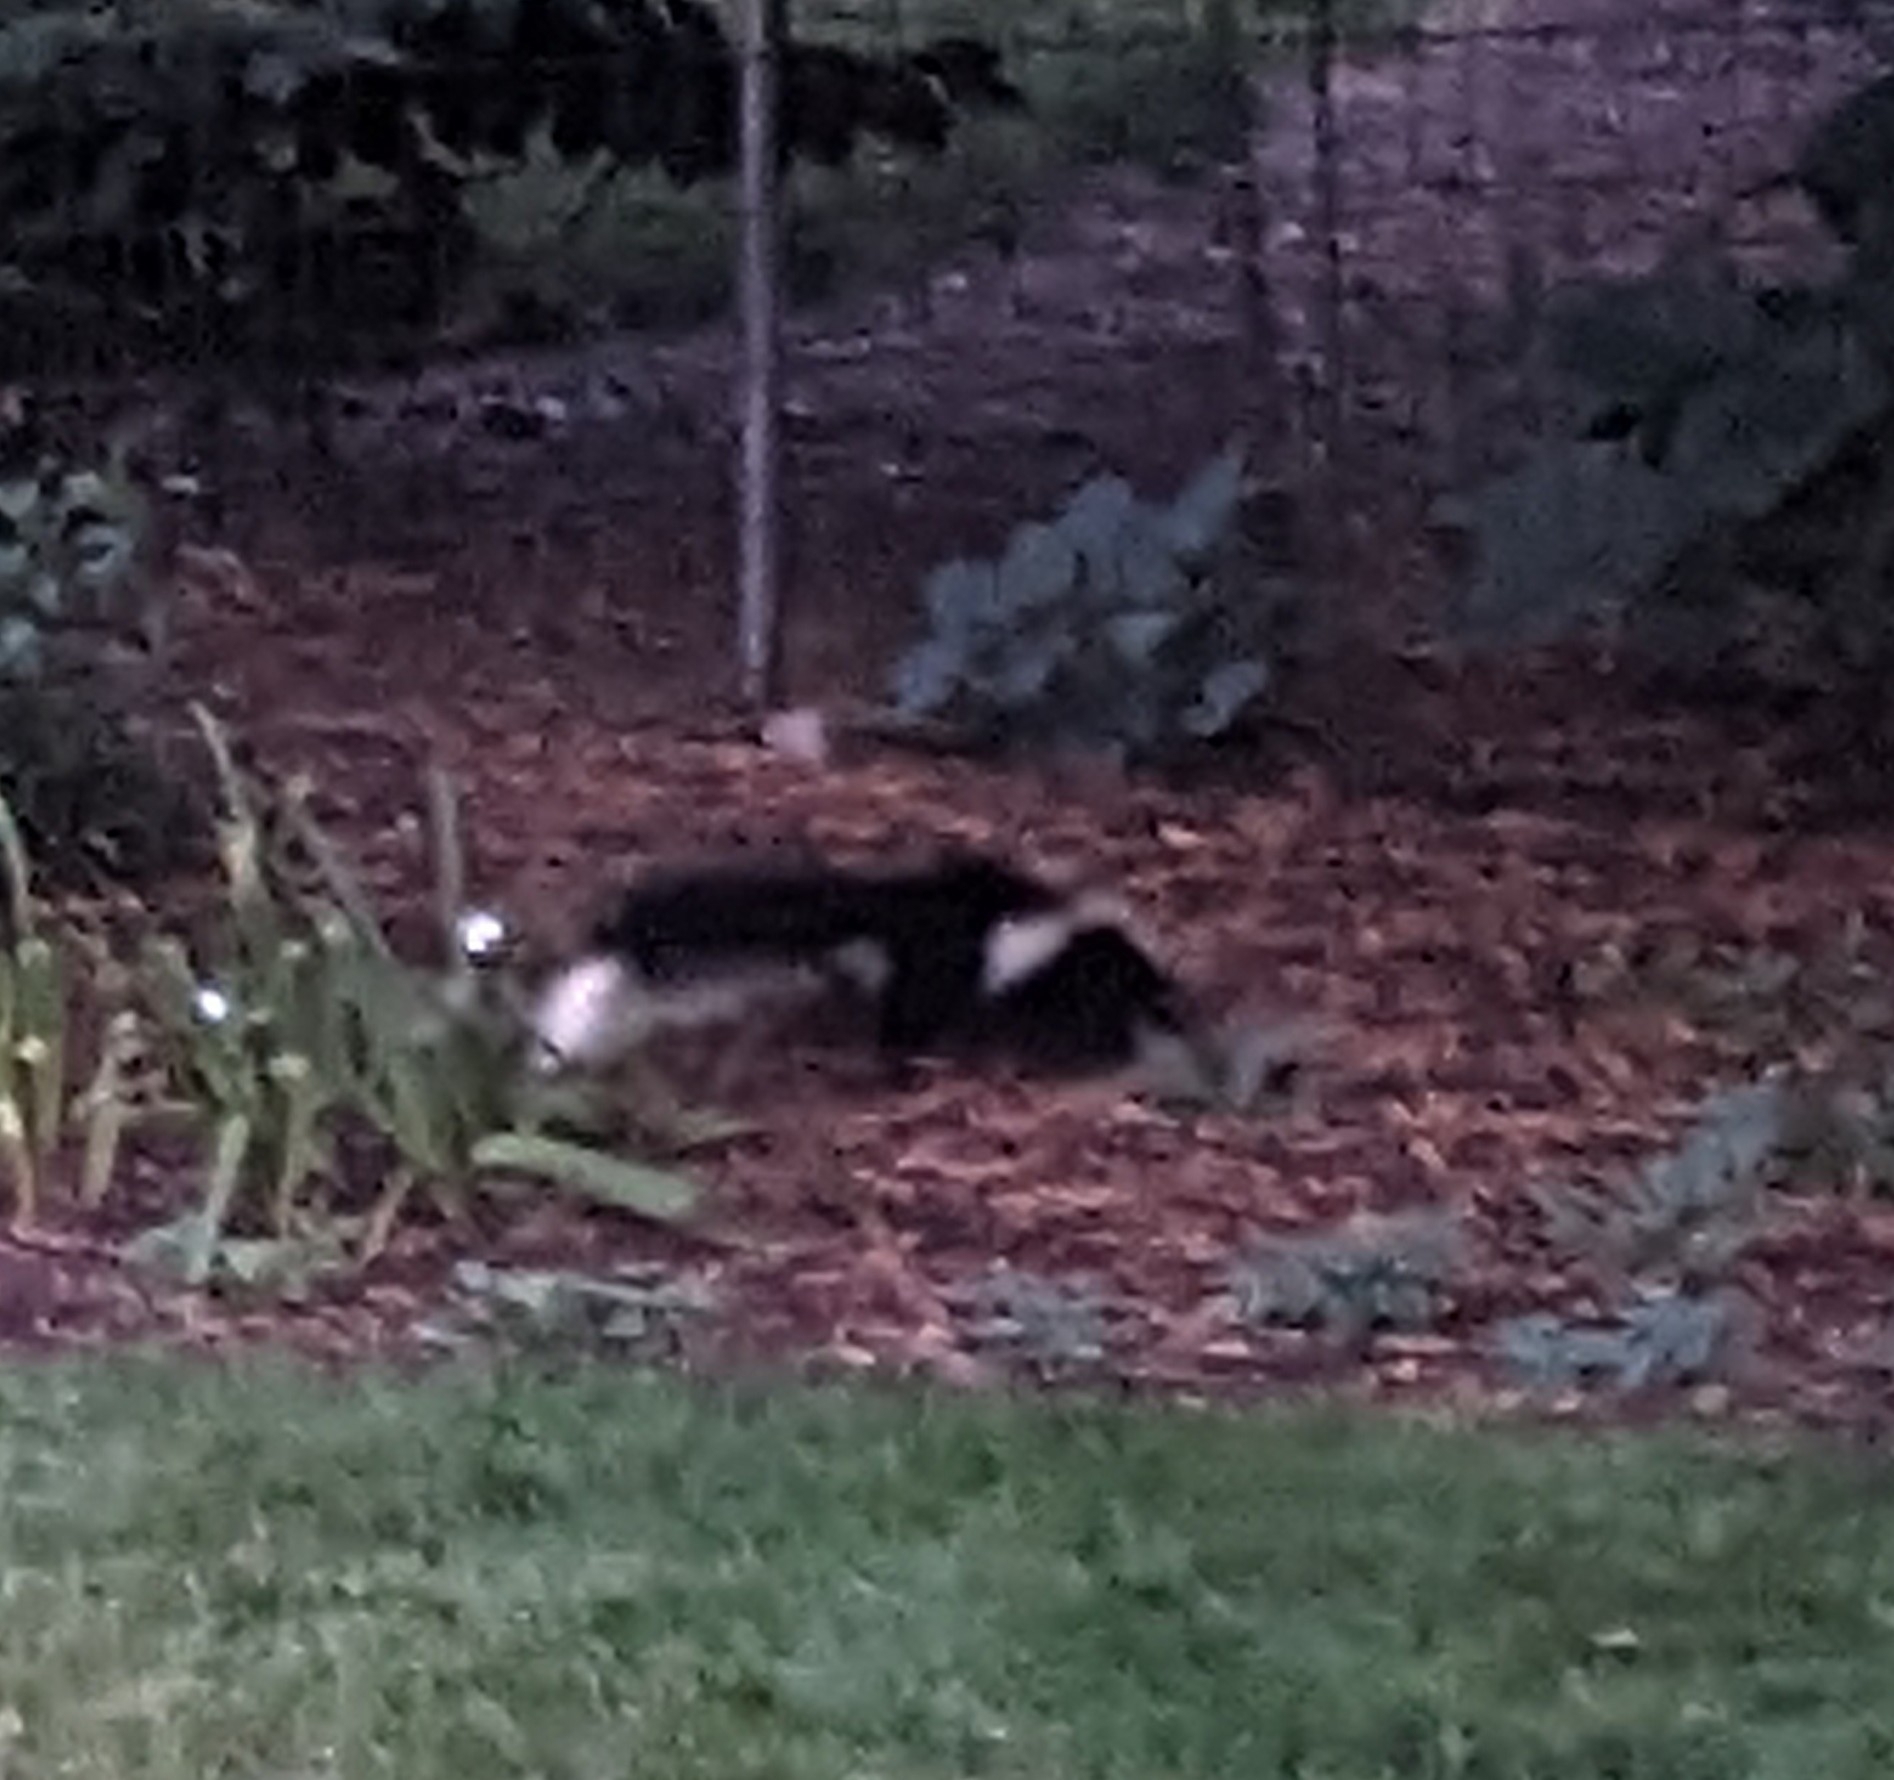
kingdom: Animalia
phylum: Chordata
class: Mammalia
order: Carnivora
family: Mephitidae
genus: Mephitis
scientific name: Mephitis mephitis
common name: Striped skunk
